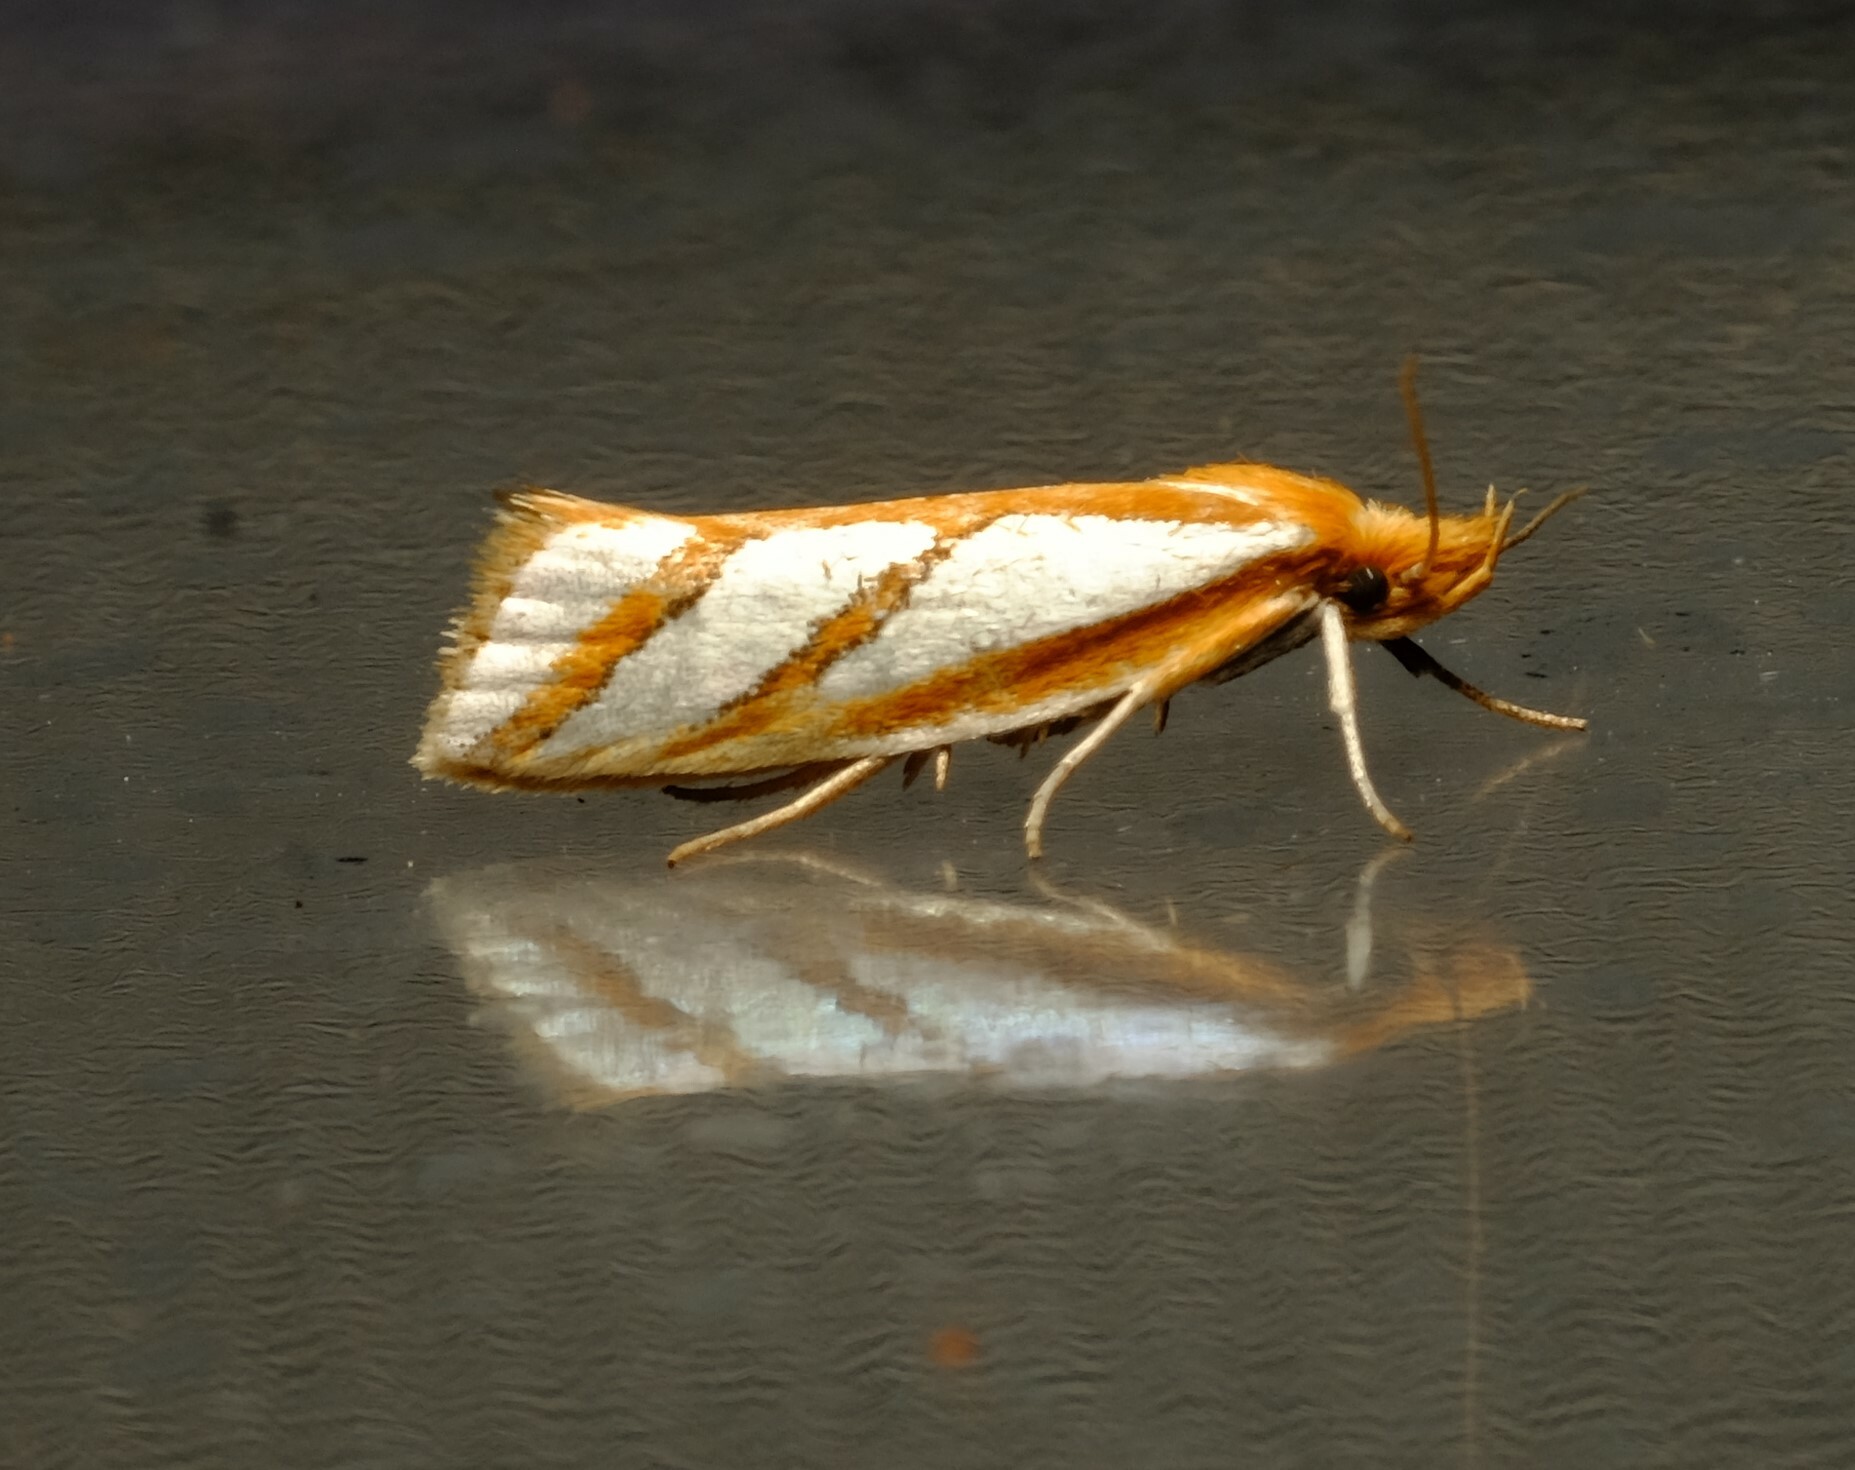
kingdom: Animalia
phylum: Arthropoda
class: Insecta
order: Lepidoptera
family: Depressariidae
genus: Thudaca
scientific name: Thudaca obliquella
